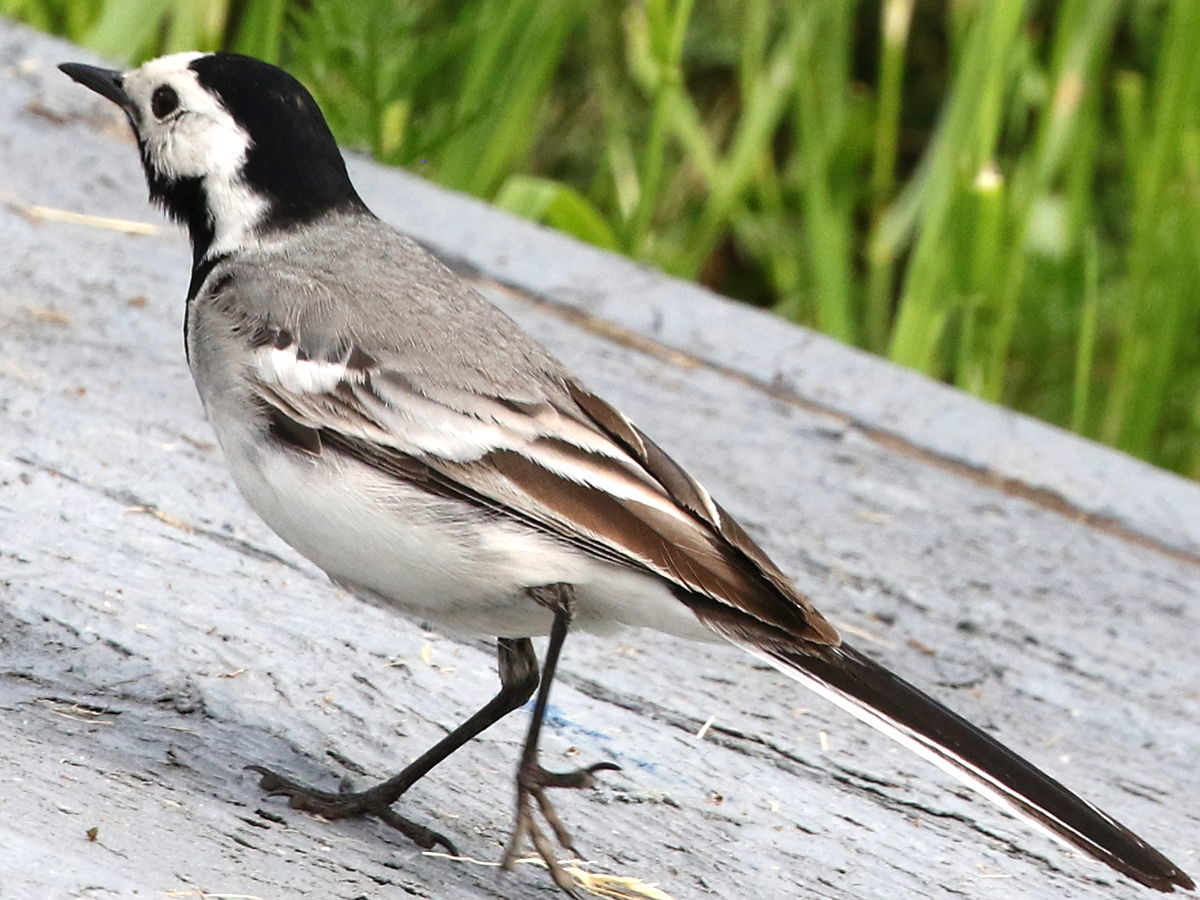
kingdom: Animalia
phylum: Chordata
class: Aves
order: Passeriformes
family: Motacillidae
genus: Motacilla
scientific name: Motacilla alba
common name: White wagtail
